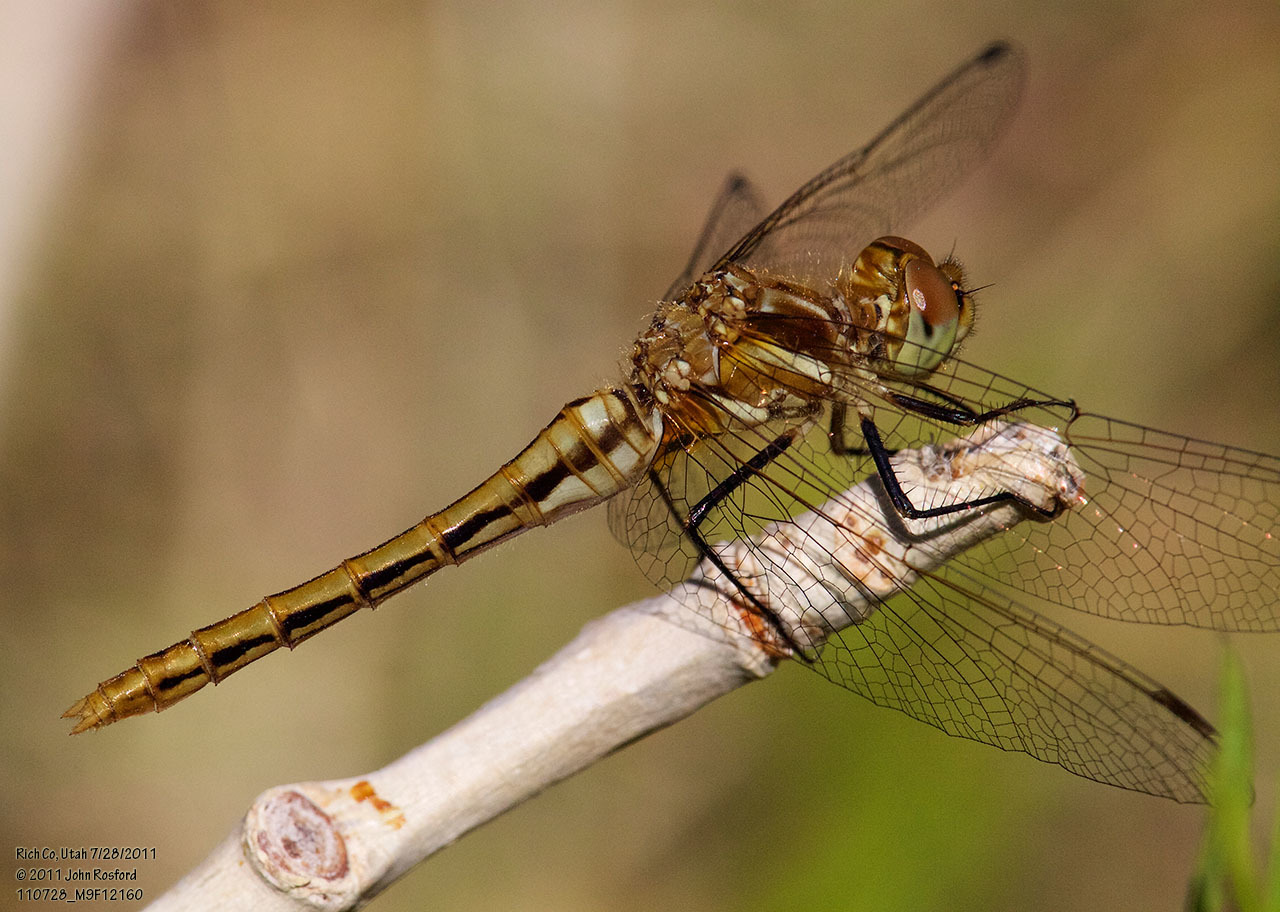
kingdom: Animalia
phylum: Arthropoda
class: Insecta
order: Odonata
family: Libellulidae
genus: Sympetrum
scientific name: Sympetrum pallipes
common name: Striped meadowhawk
